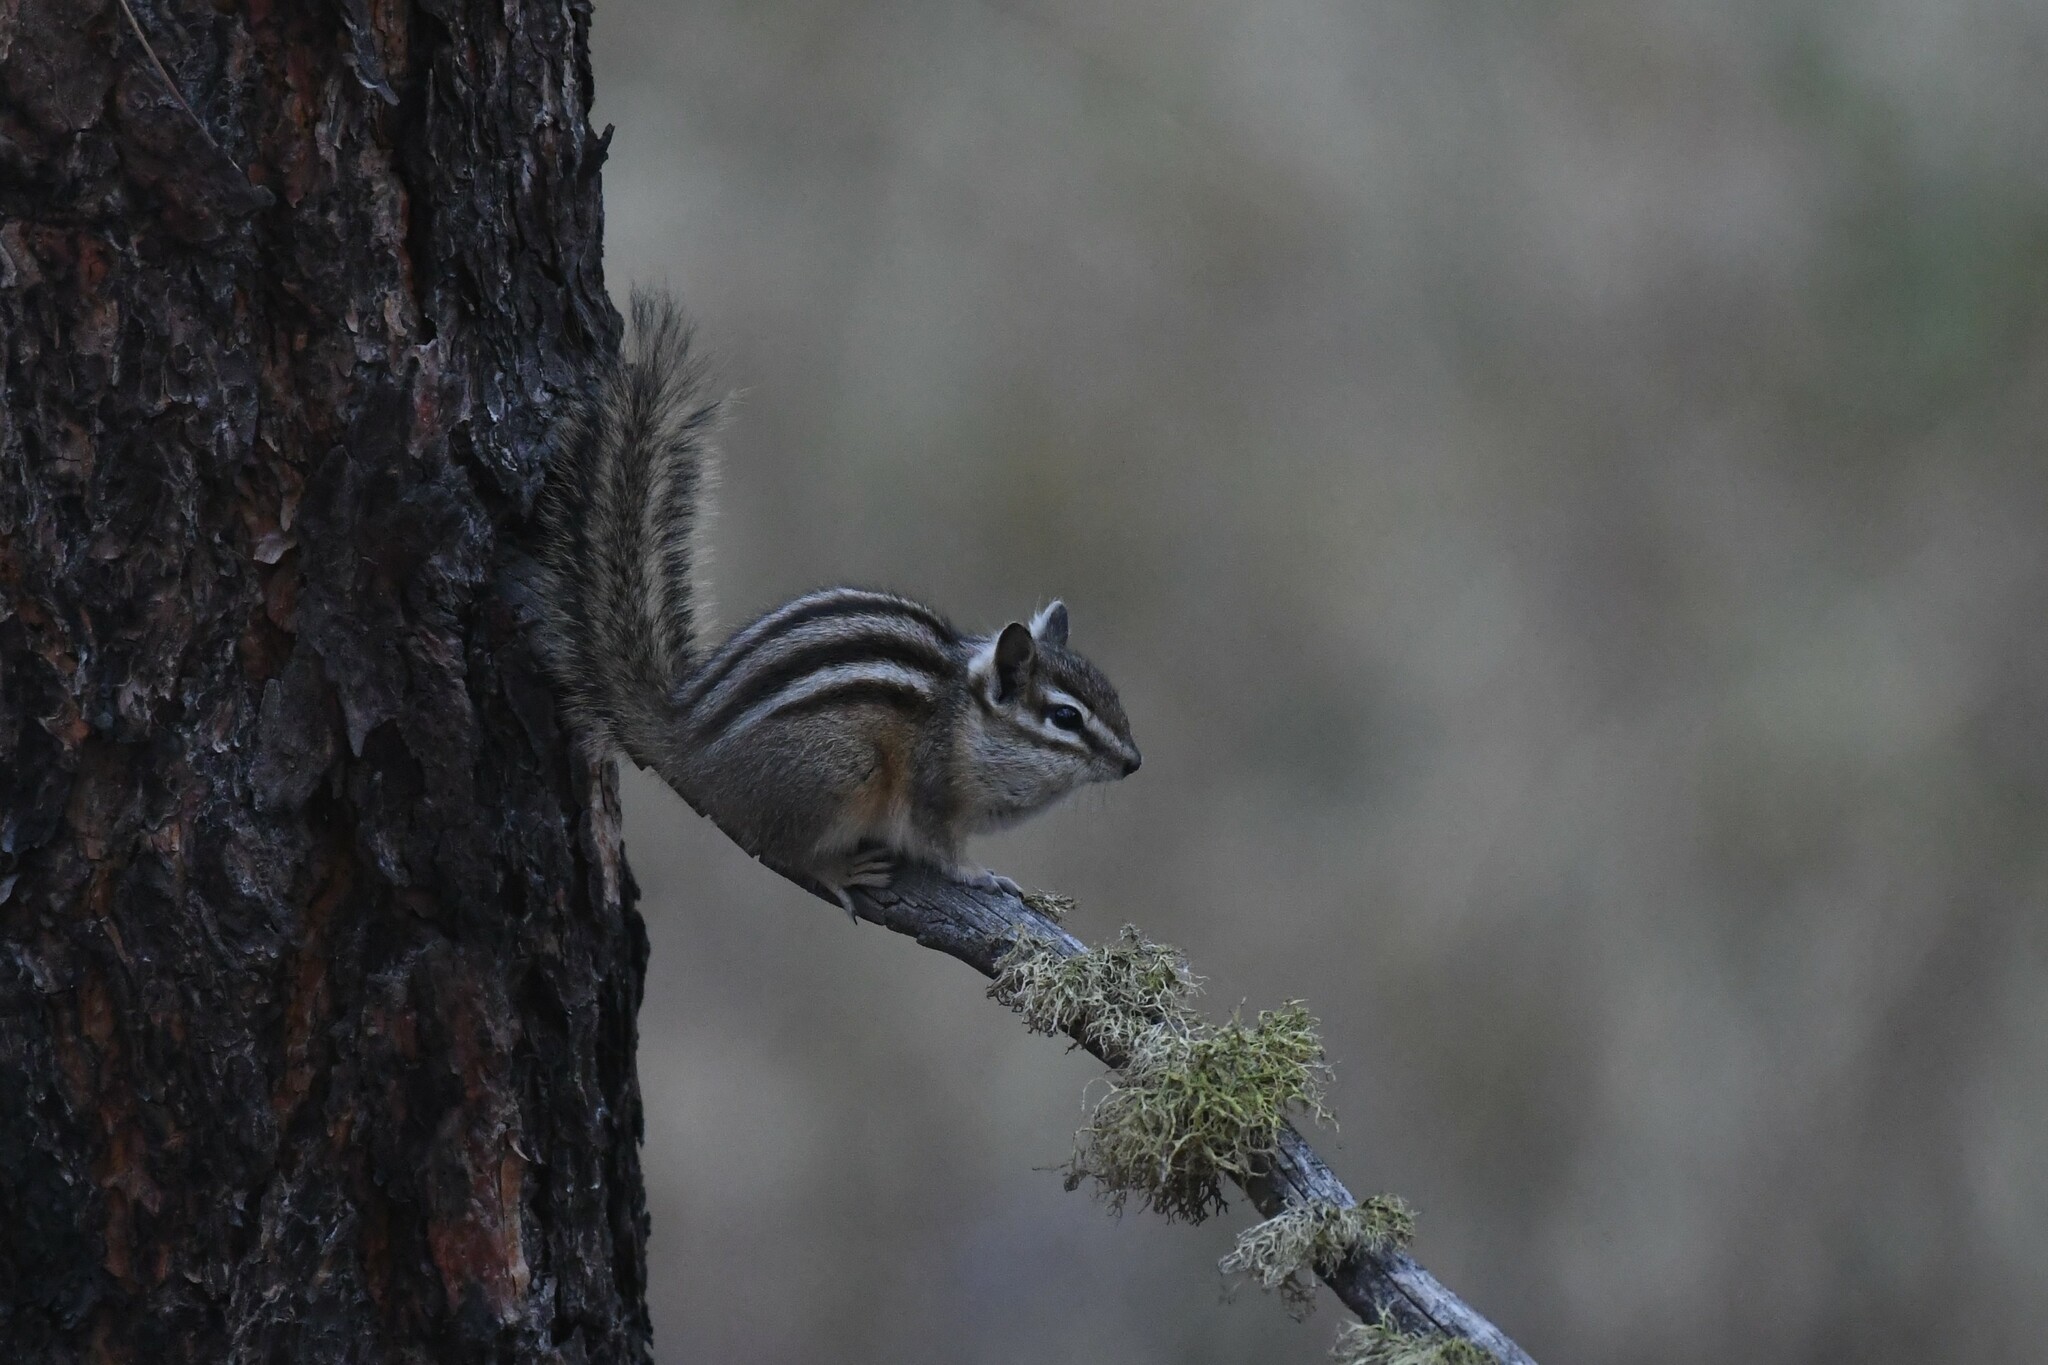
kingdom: Animalia
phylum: Chordata
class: Mammalia
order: Rodentia
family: Sciuridae
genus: Tamias
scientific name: Tamias amoenus
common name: Yellow-pine chipmunk
